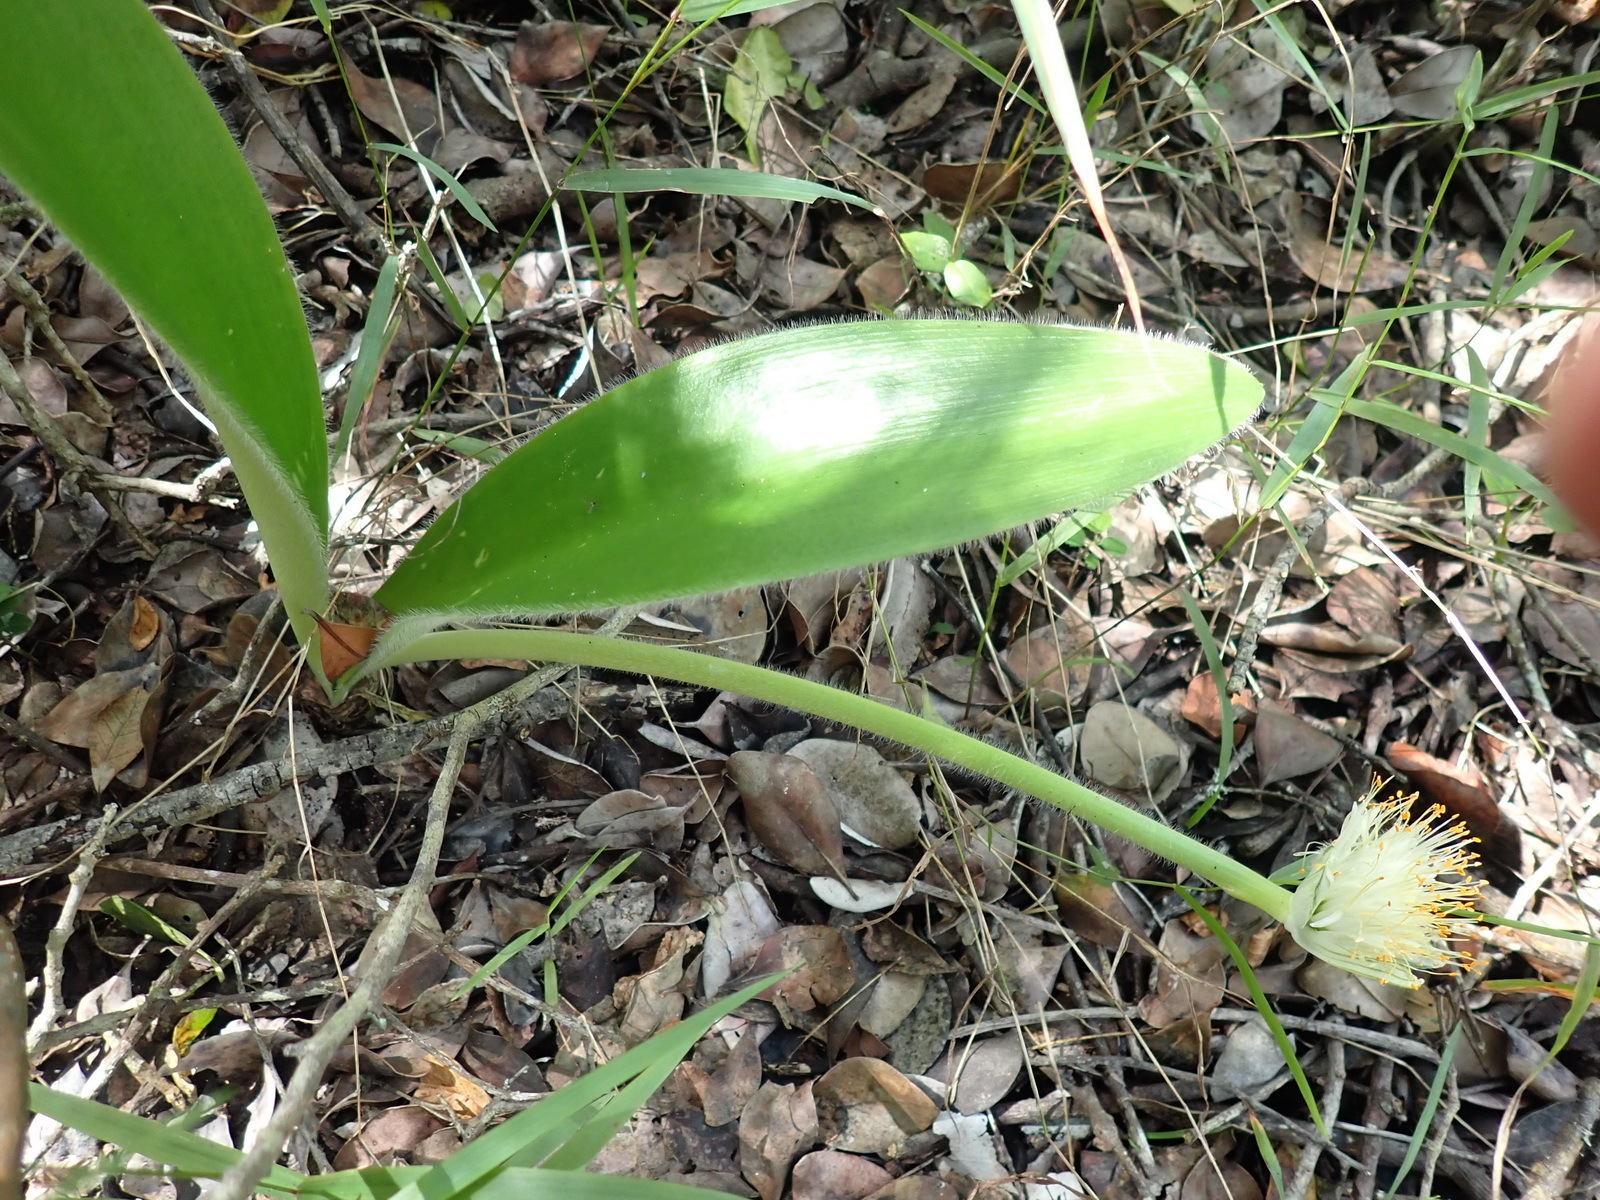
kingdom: Plantae
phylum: Tracheophyta
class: Liliopsida
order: Asparagales
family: Amaryllidaceae
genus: Haemanthus
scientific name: Haemanthus albiflos
